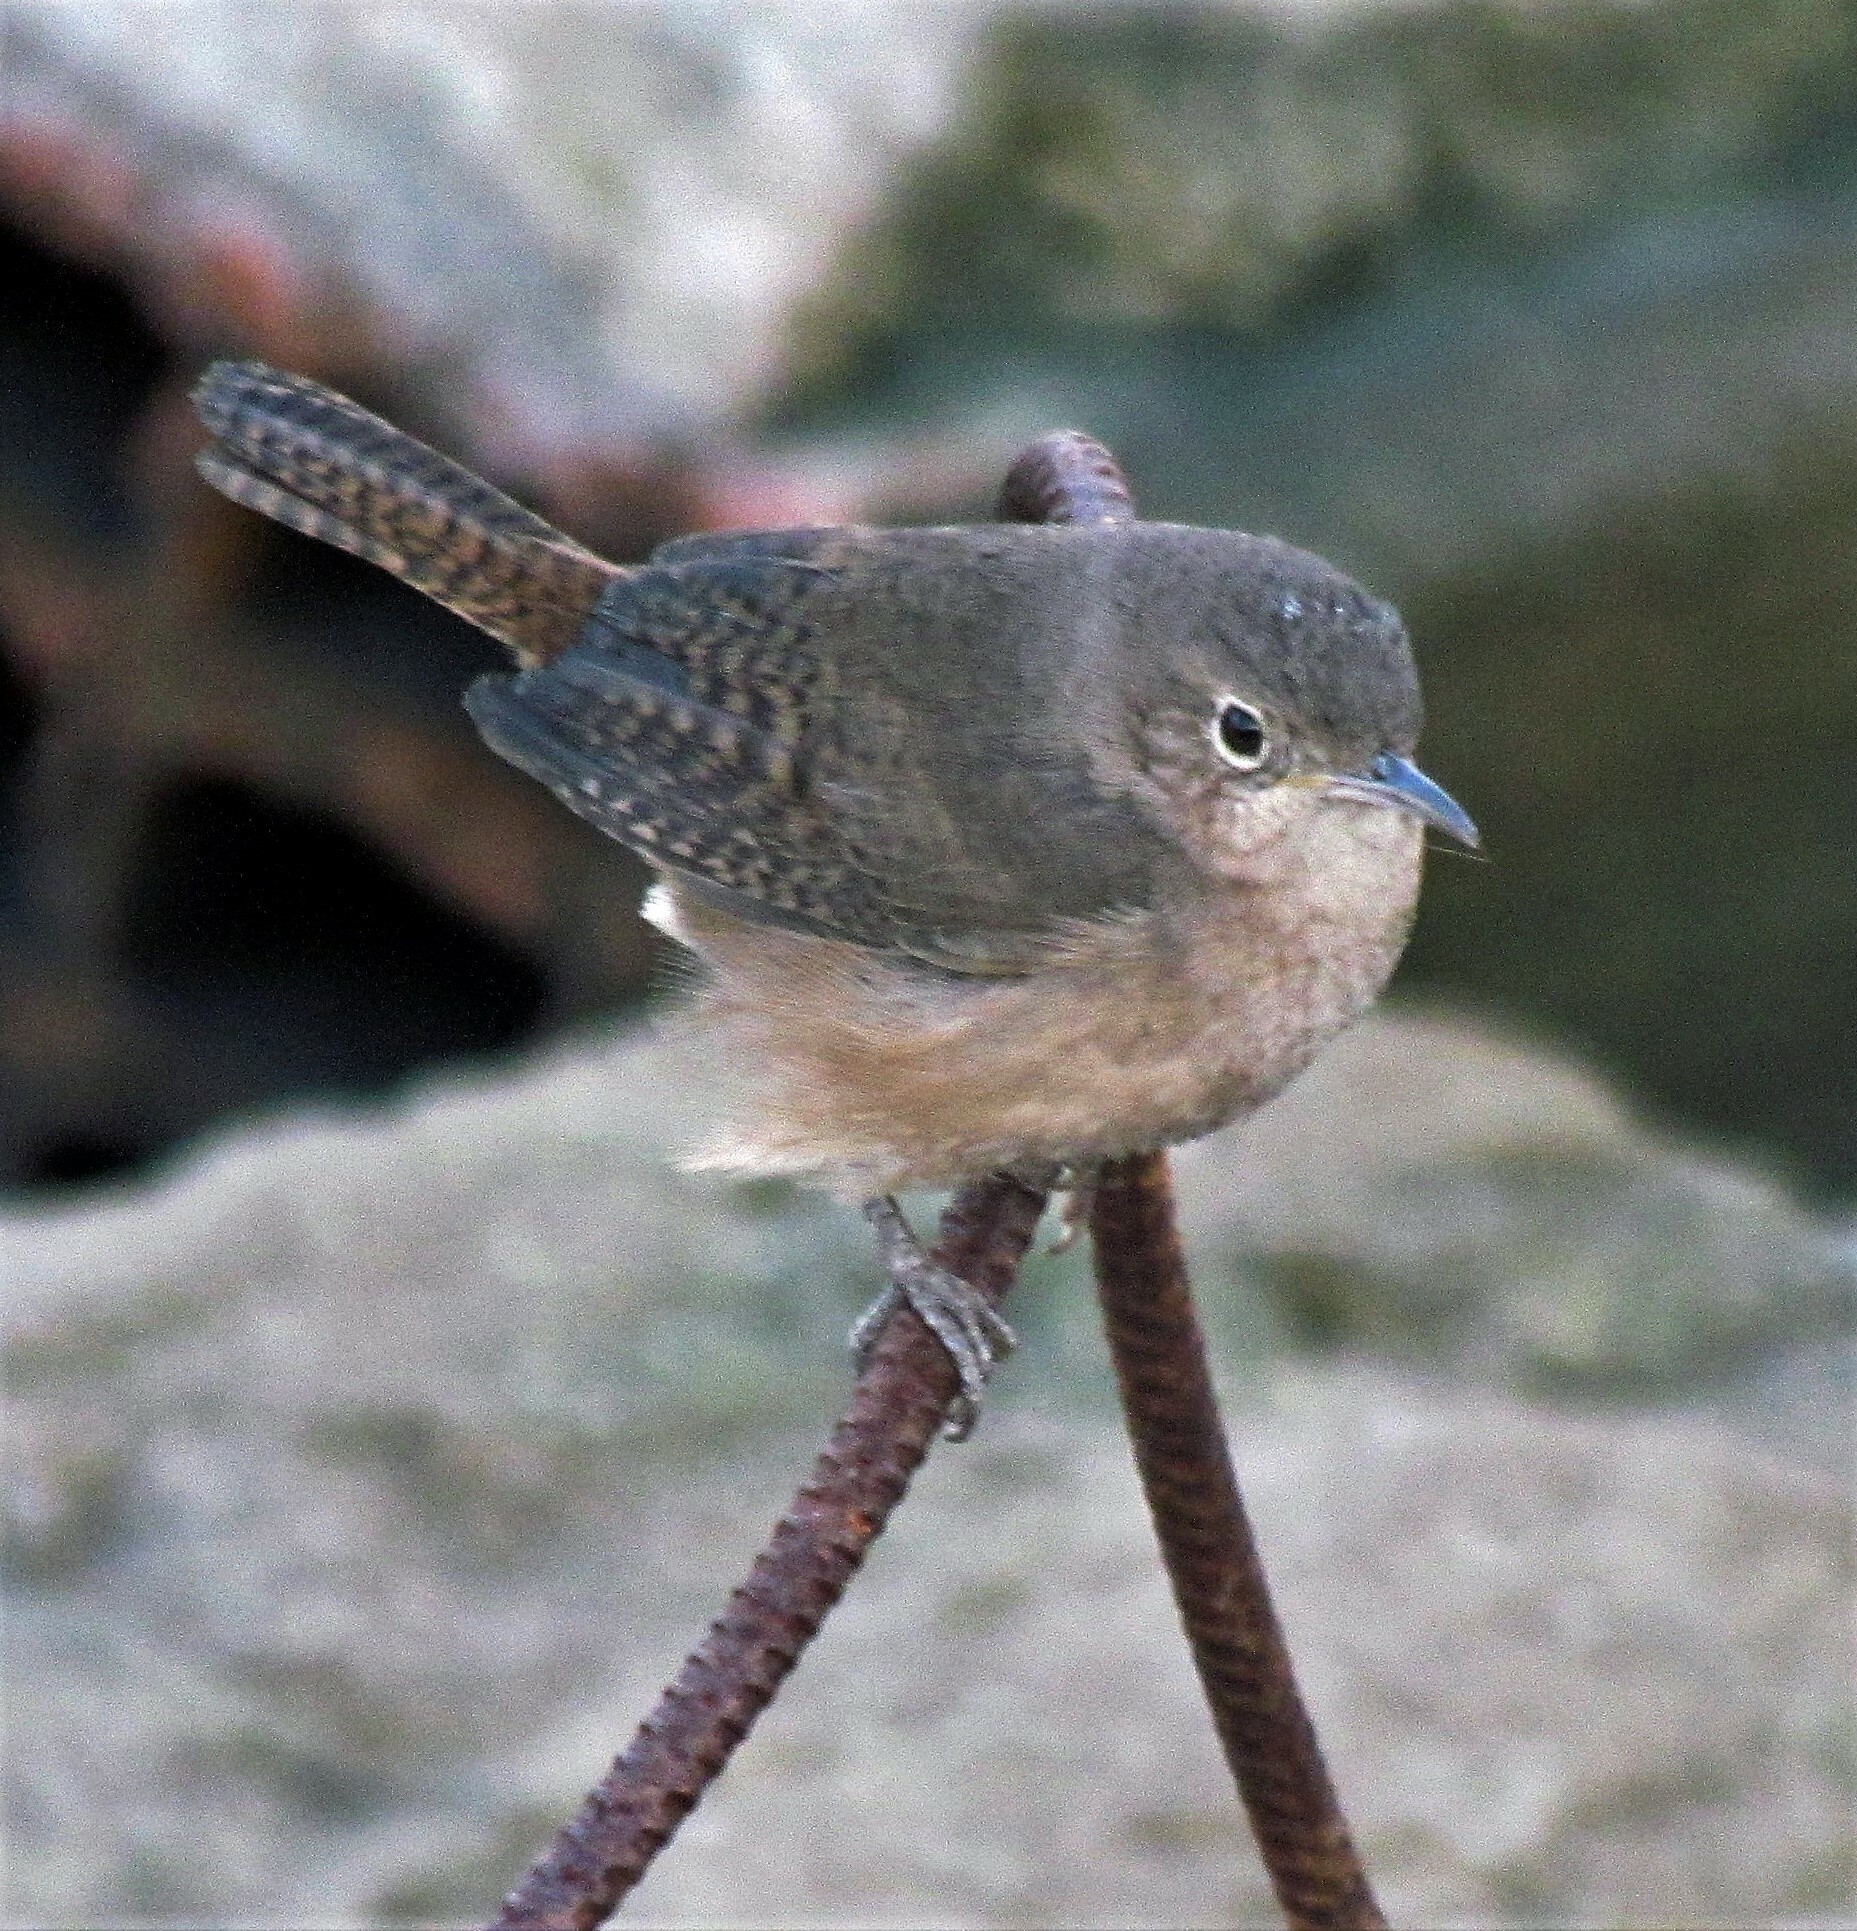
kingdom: Animalia
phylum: Chordata
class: Aves
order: Passeriformes
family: Troglodytidae
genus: Troglodytes
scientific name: Troglodytes aedon
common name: House wren
